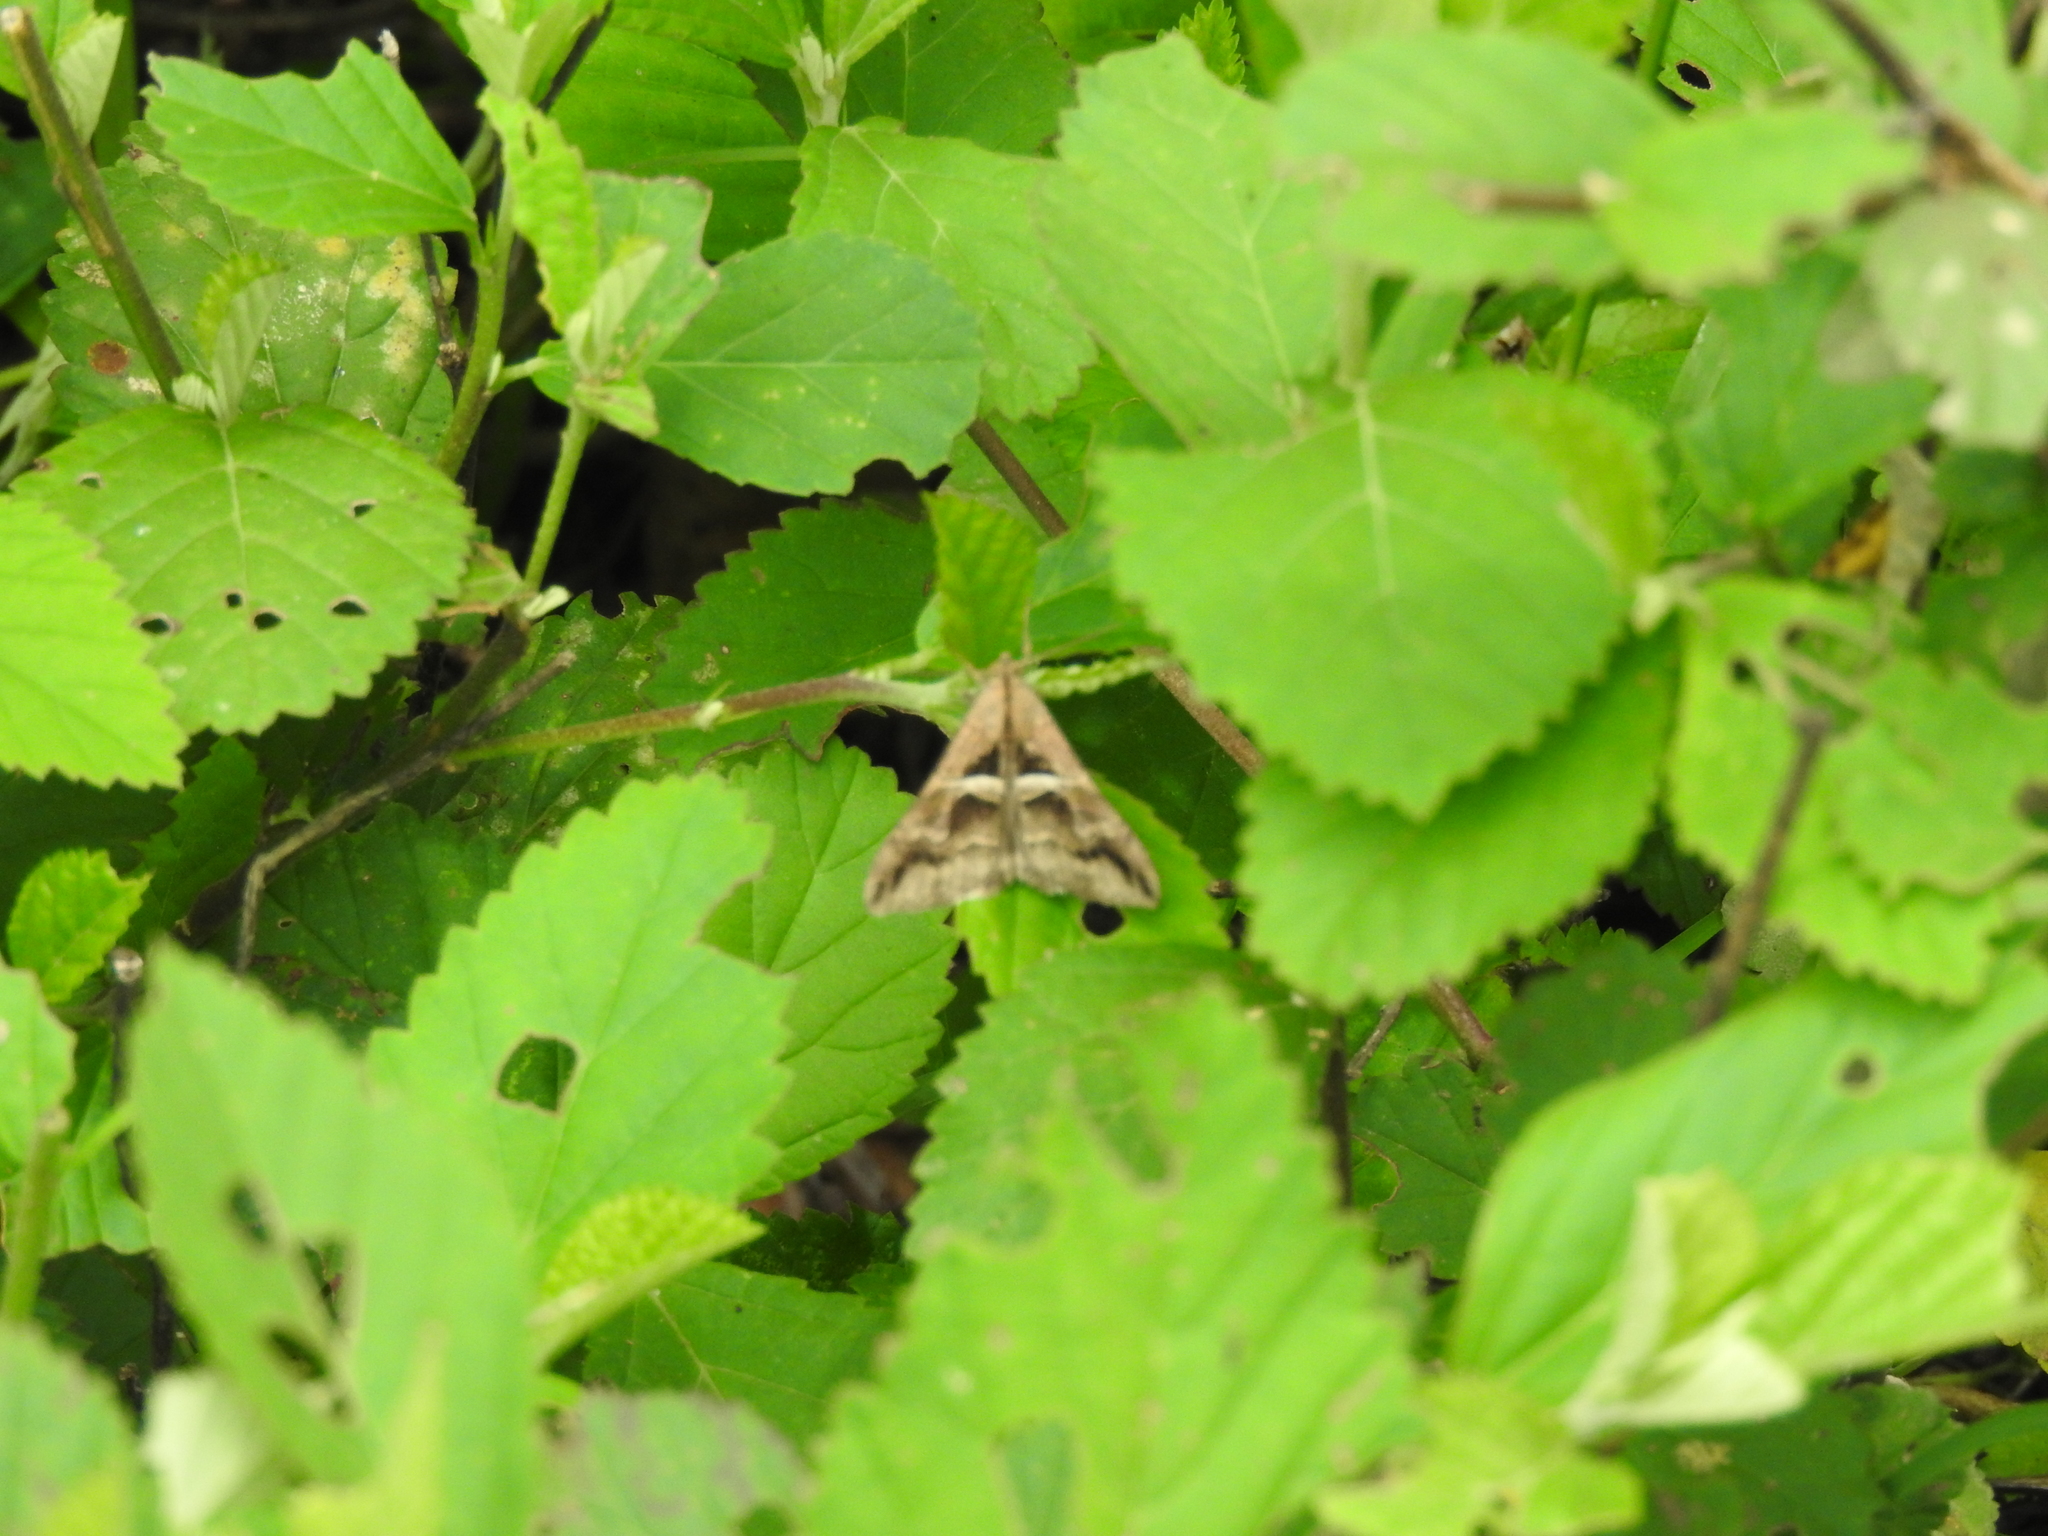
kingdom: Animalia
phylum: Arthropoda
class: Insecta
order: Lepidoptera
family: Erebidae
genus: Melipotis
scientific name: Melipotis cellaris
